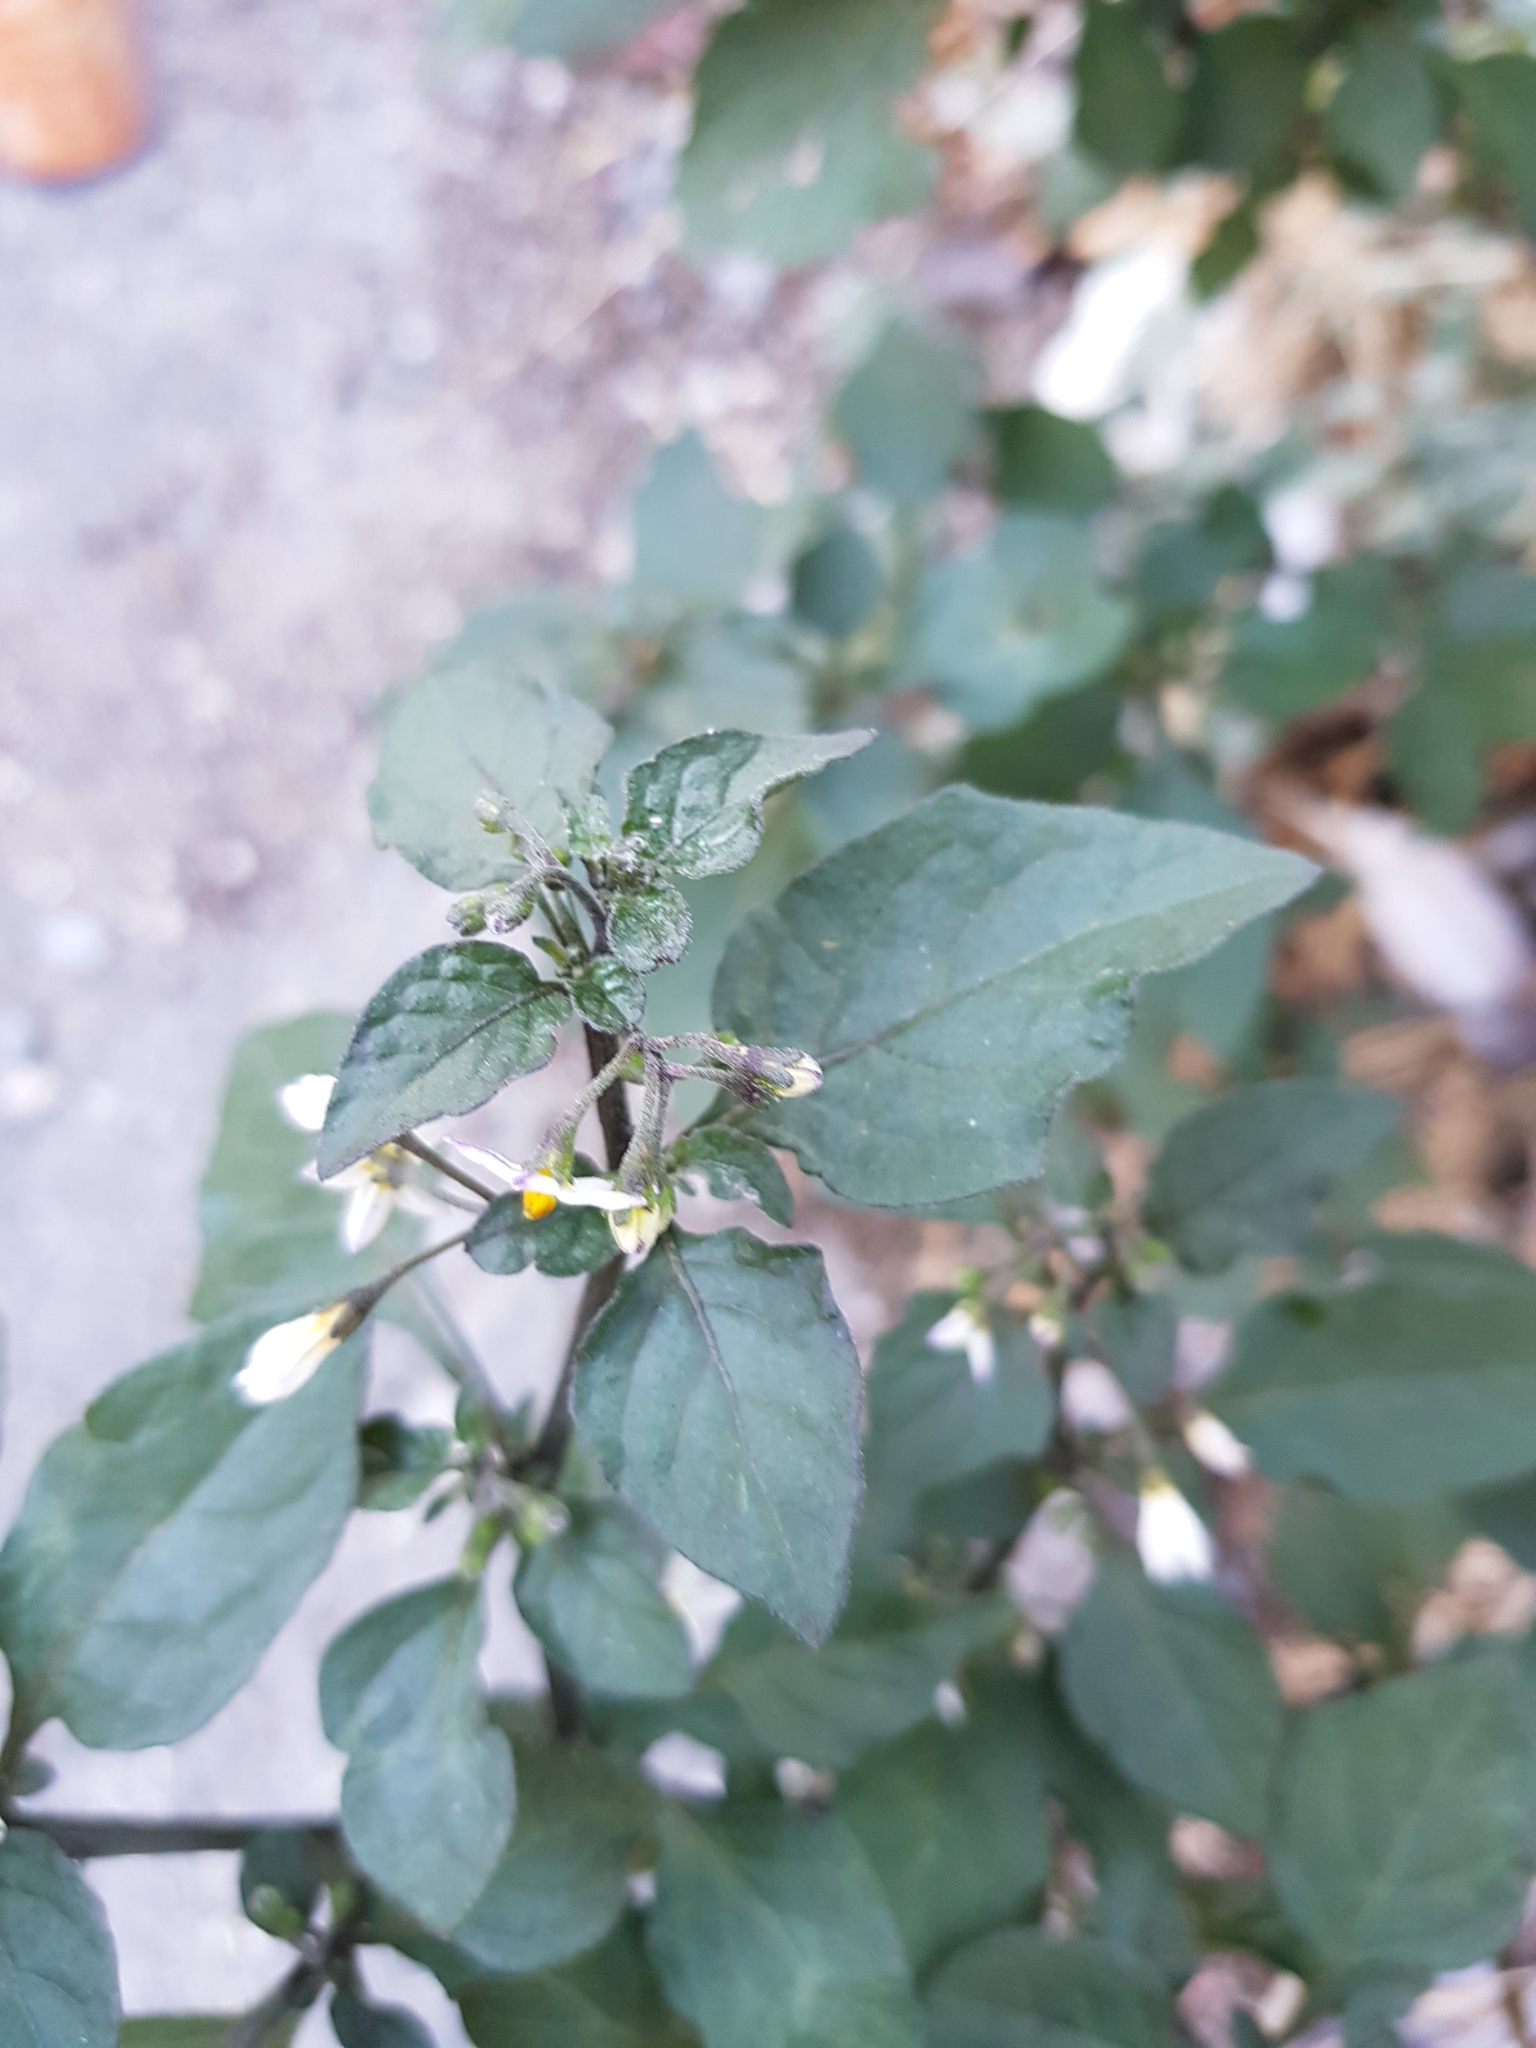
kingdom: Plantae
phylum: Tracheophyta
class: Magnoliopsida
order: Solanales
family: Solanaceae
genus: Solanum
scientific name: Solanum nigrum
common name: Black nightshade
